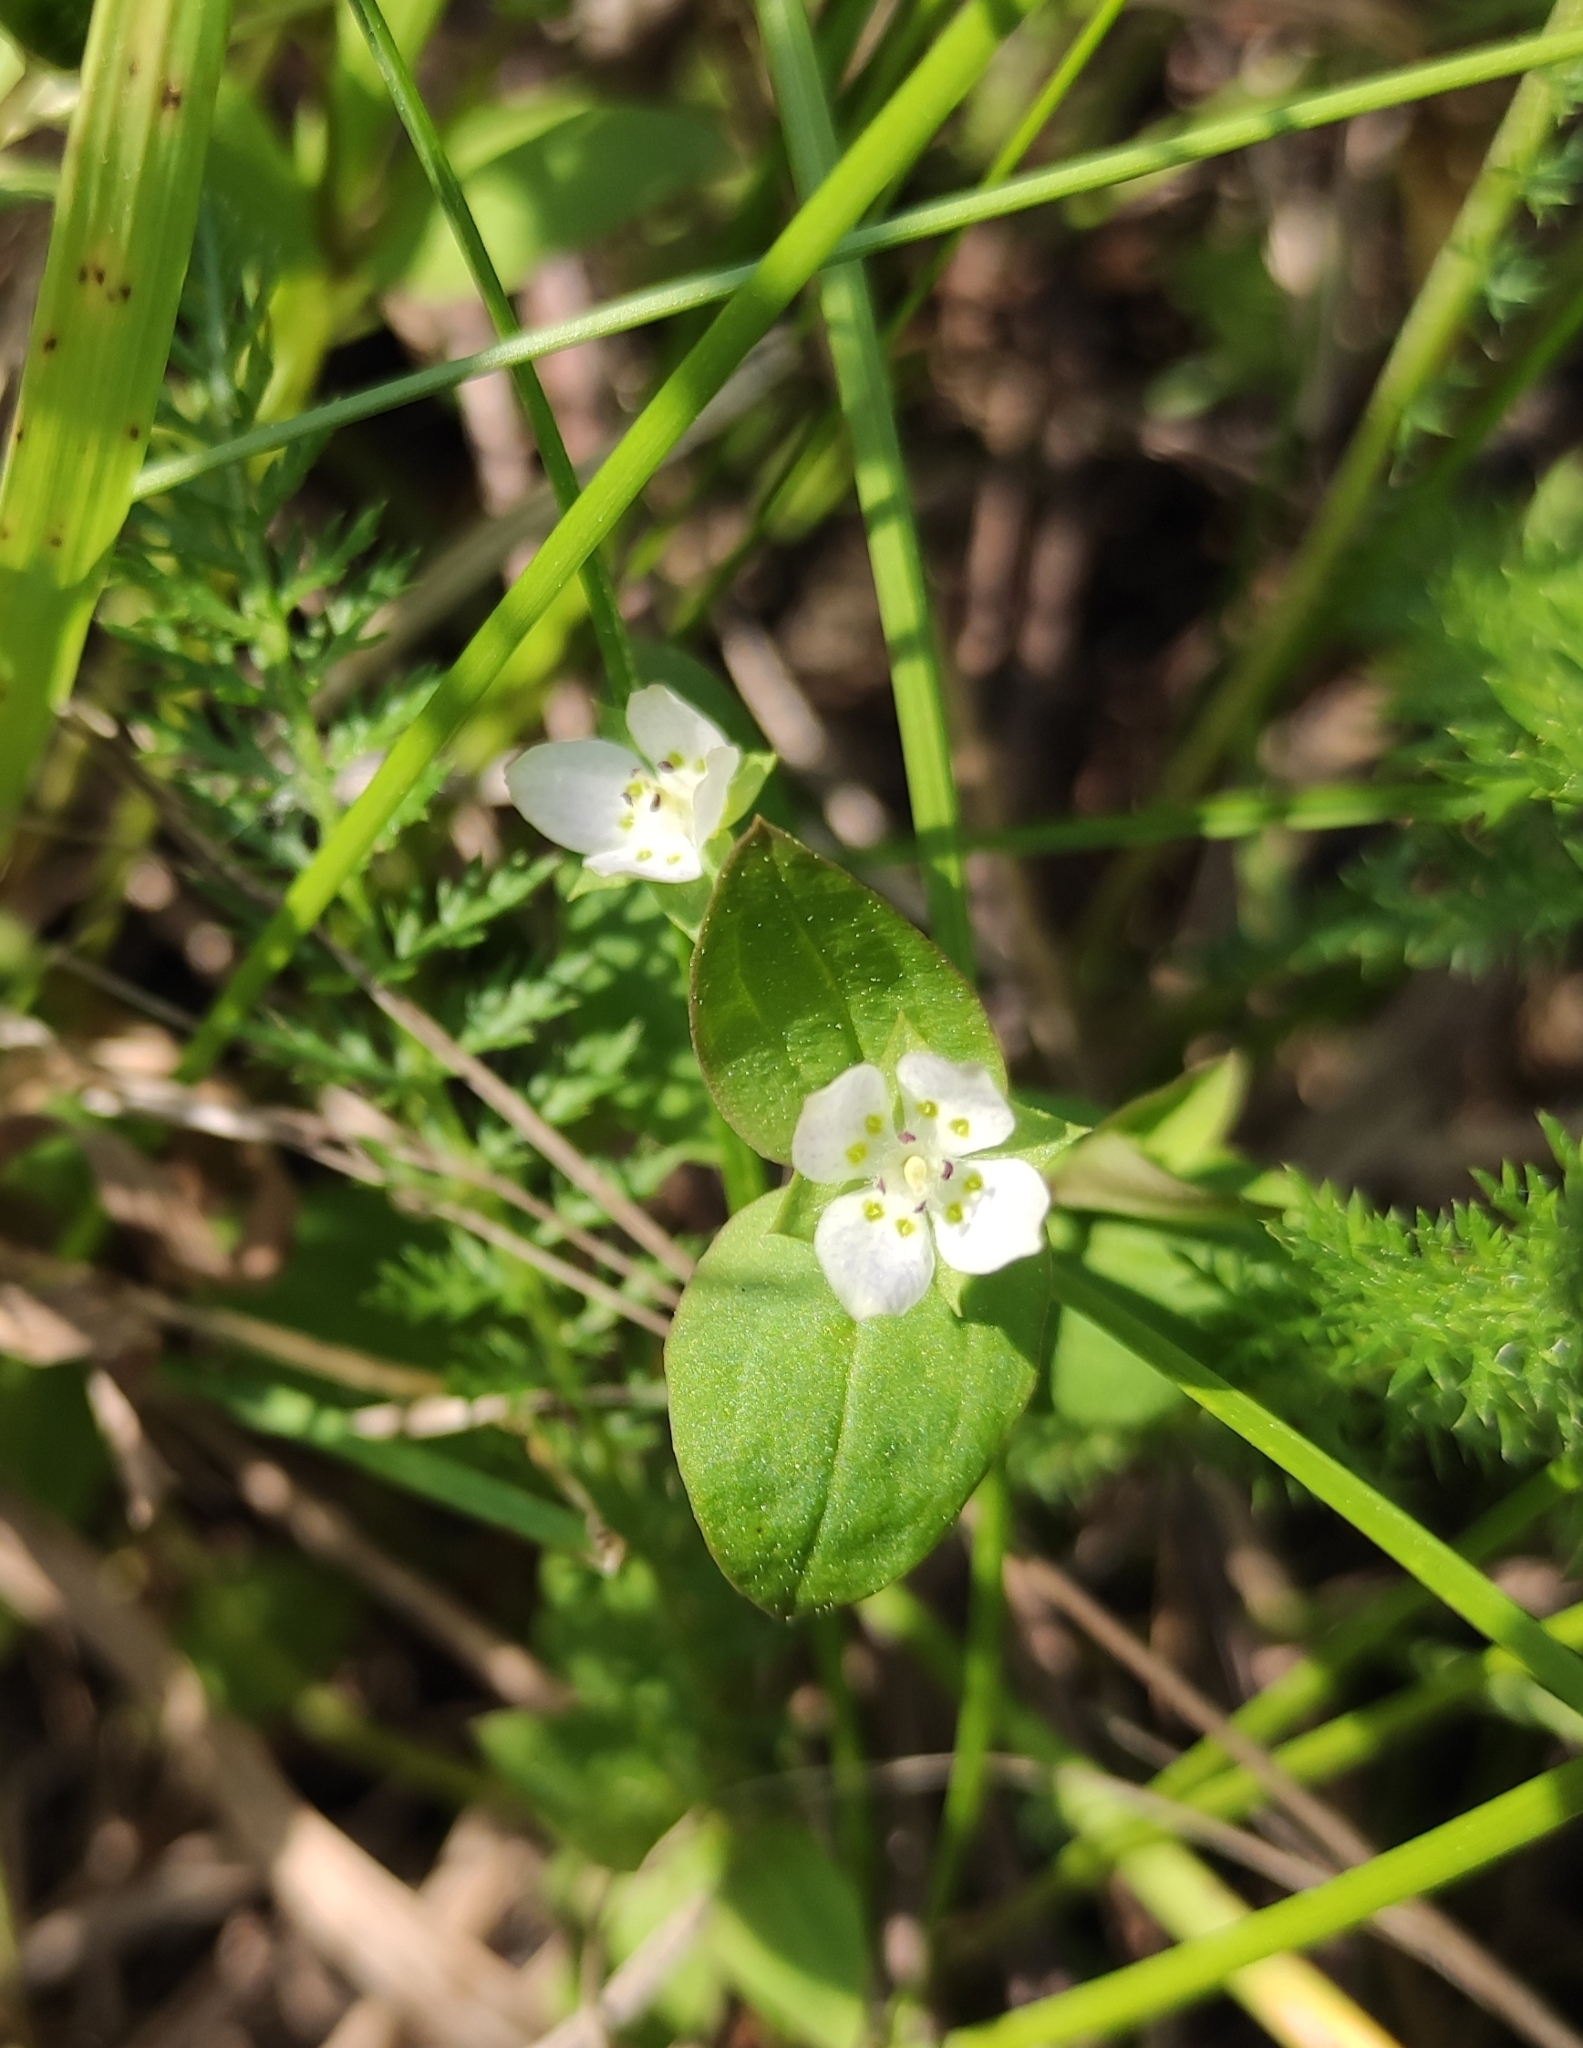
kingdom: Plantae
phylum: Tracheophyta
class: Magnoliopsida
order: Gentianales
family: Gentianaceae
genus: Swertia
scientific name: Swertia dichotoma
